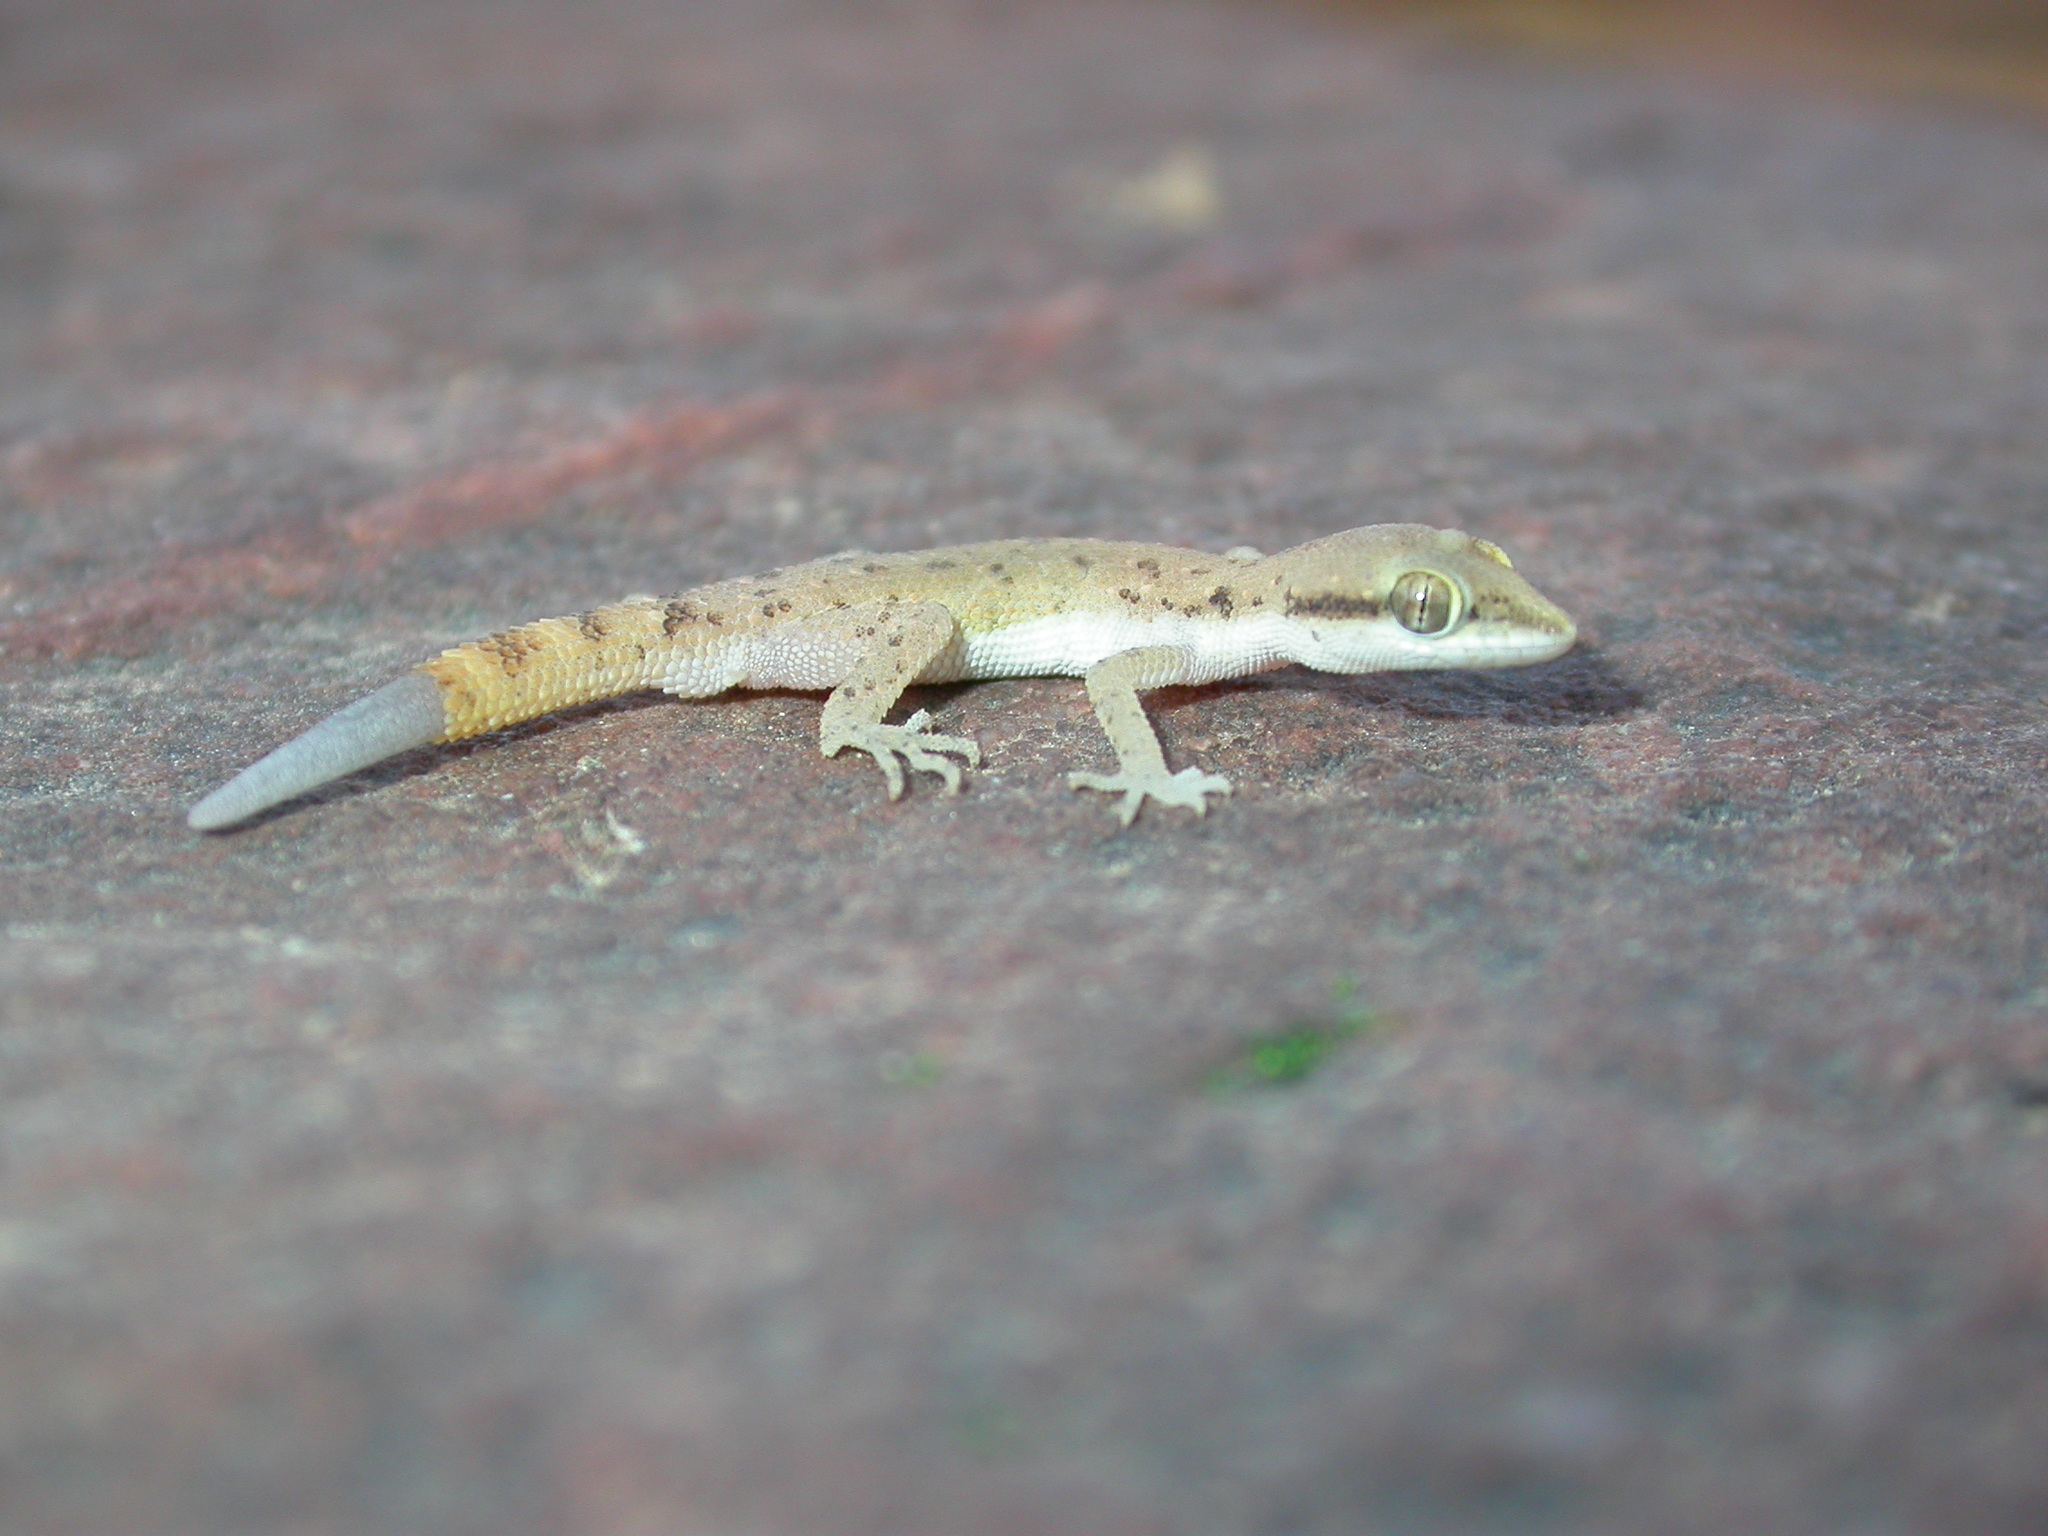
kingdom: Animalia
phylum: Chordata
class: Squamata
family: Gekkonidae
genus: Tropiocolotes
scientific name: Tropiocolotes tripolitanus
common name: Northern sand gecko
